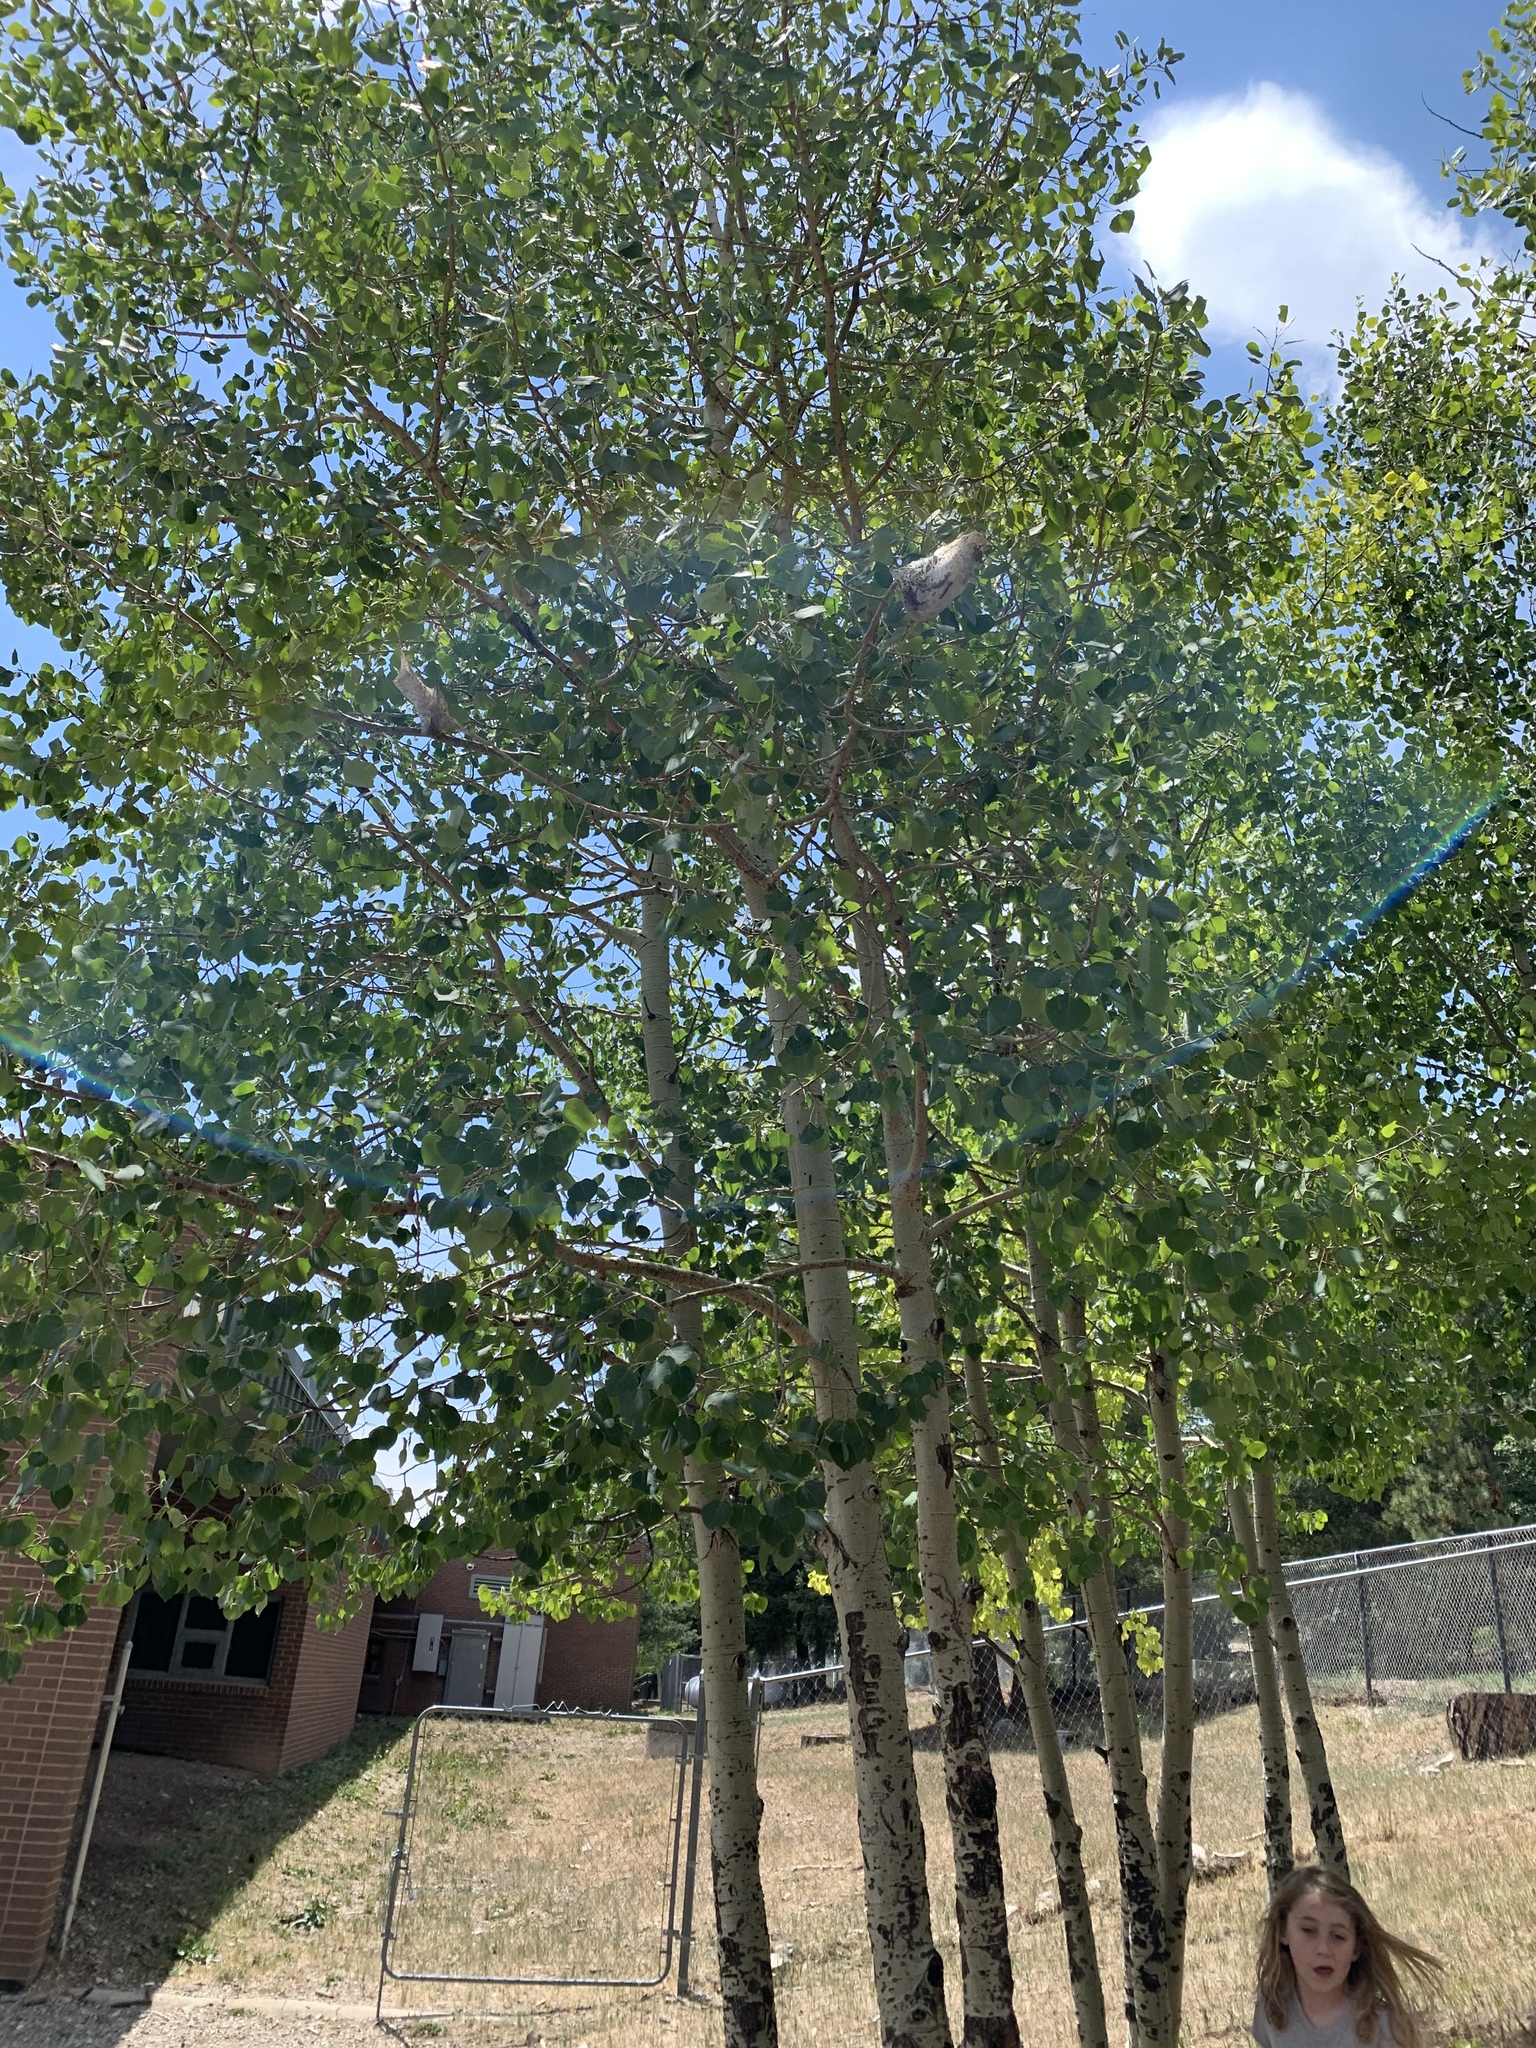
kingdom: Plantae
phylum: Tracheophyta
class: Magnoliopsida
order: Malpighiales
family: Salicaceae
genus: Populus
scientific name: Populus tremuloides
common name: Quaking aspen
